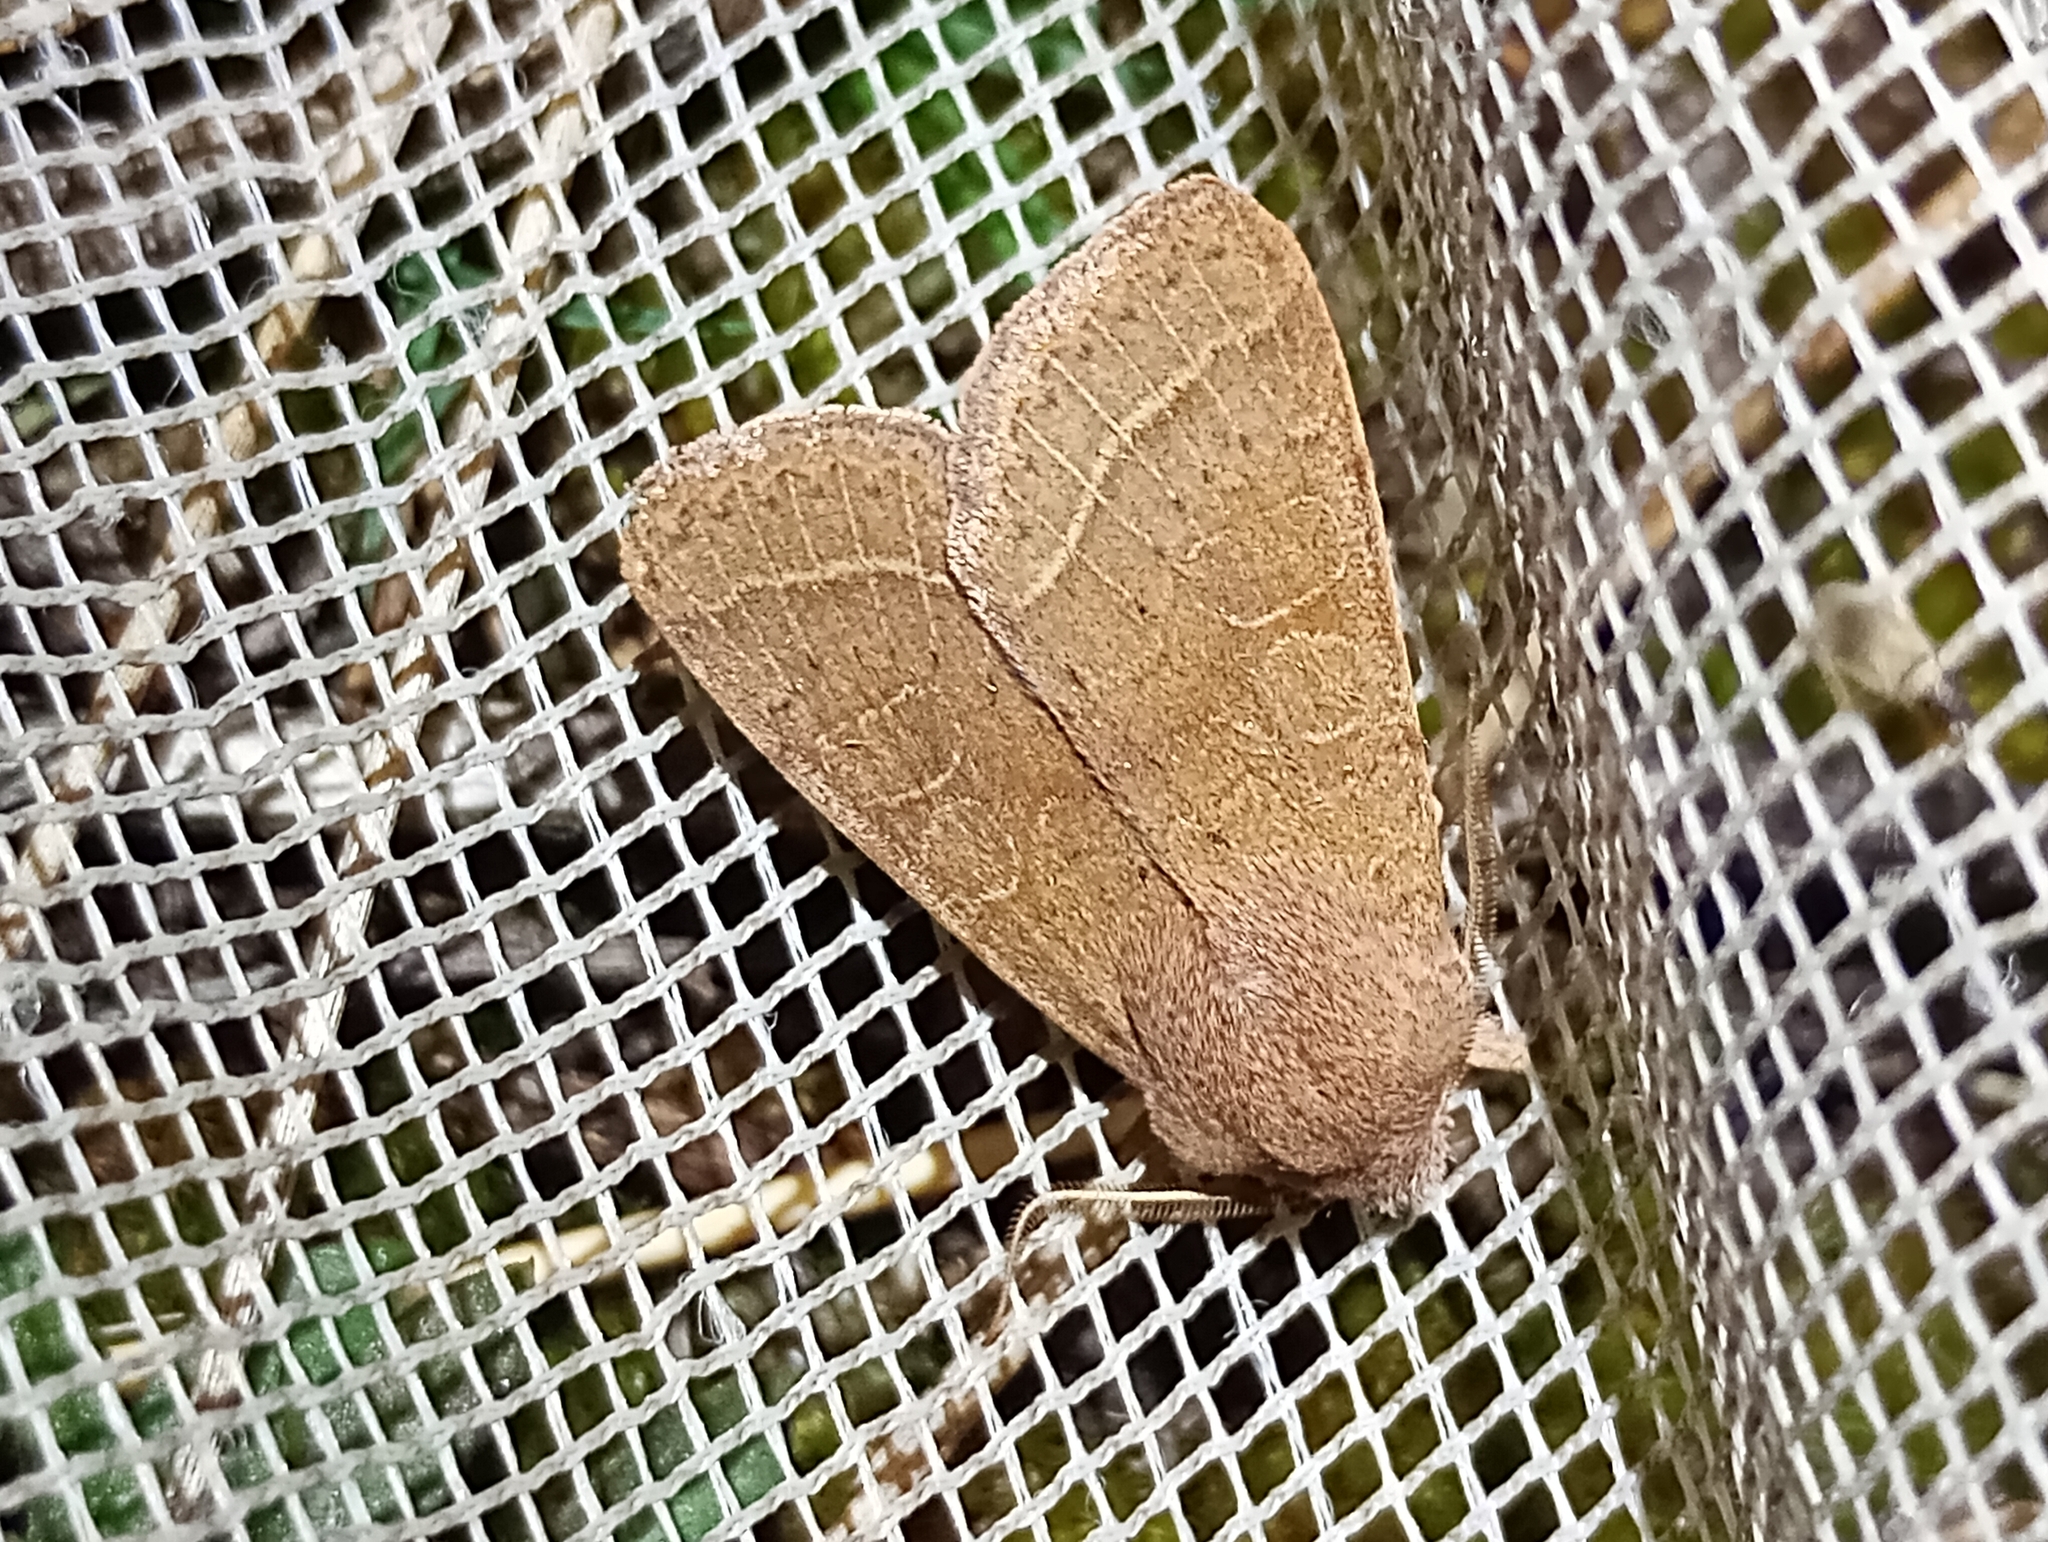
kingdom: Animalia
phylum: Arthropoda
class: Insecta
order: Lepidoptera
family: Noctuidae
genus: Orthosia
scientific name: Orthosia cerasi
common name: Common quaker
